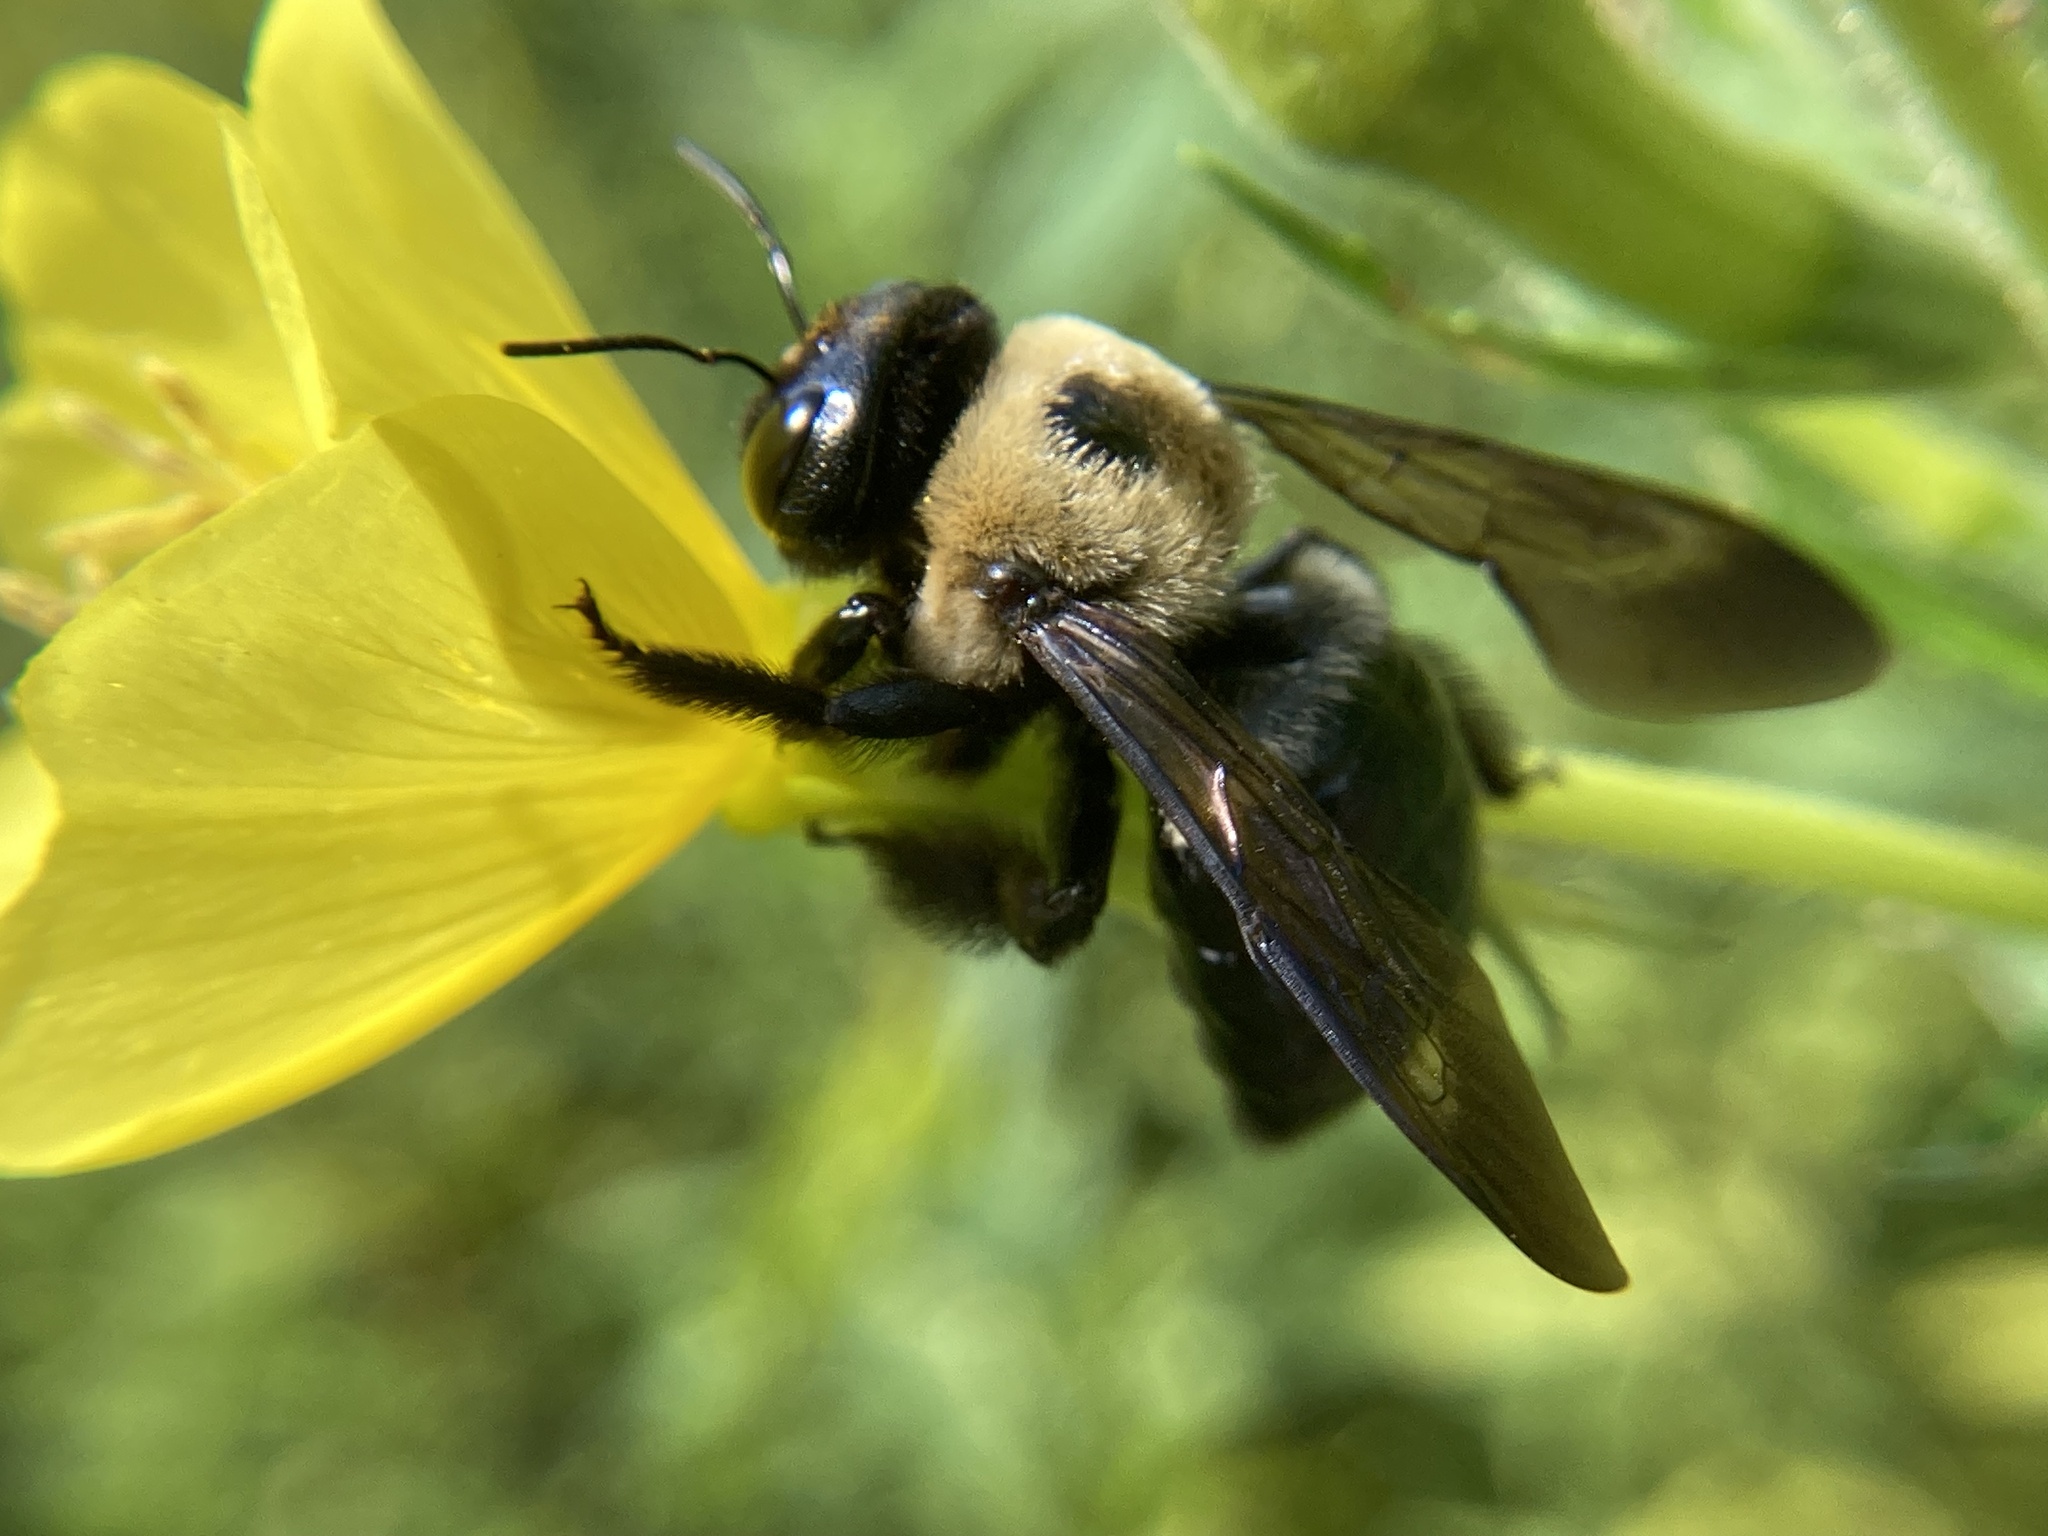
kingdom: Animalia
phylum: Arthropoda
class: Insecta
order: Hymenoptera
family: Apidae
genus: Xylocopa
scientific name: Xylocopa virginica
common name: Carpenter bee
